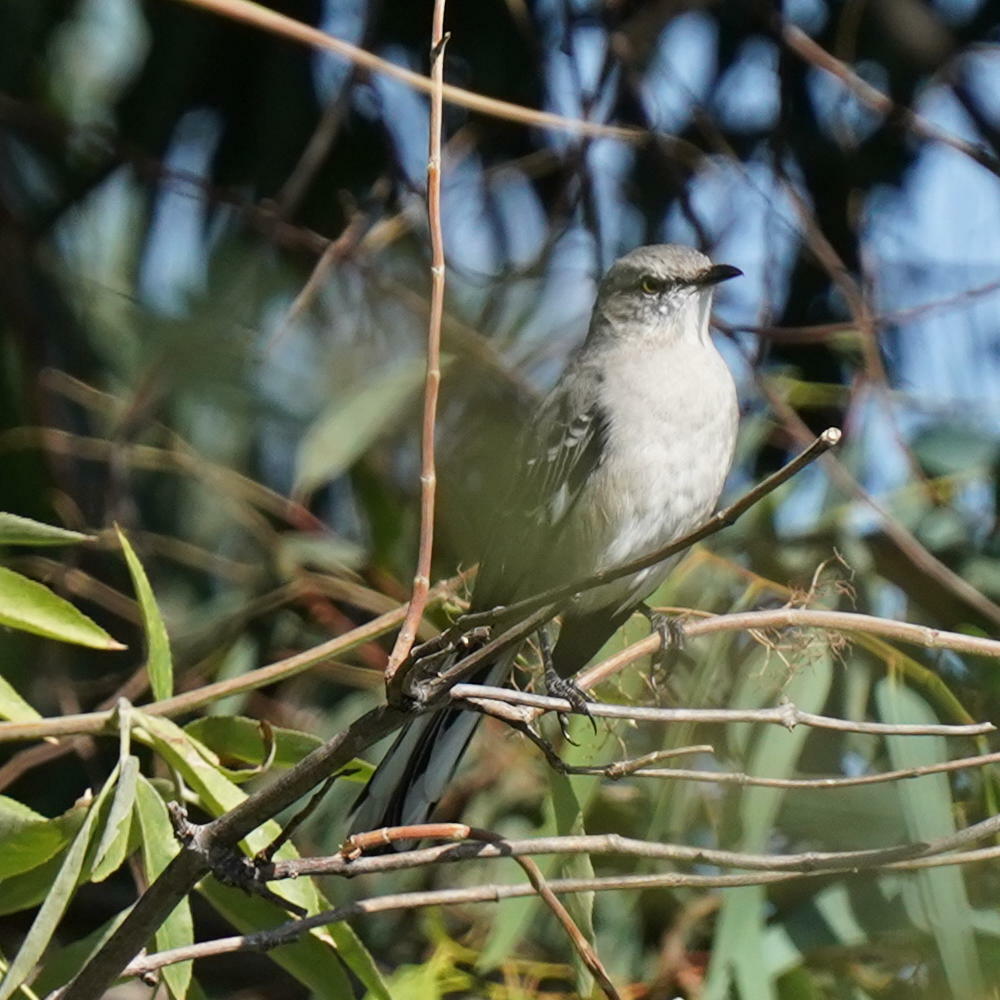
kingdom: Animalia
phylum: Chordata
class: Aves
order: Passeriformes
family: Mimidae
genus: Mimus
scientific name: Mimus polyglottos
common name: Northern mockingbird
